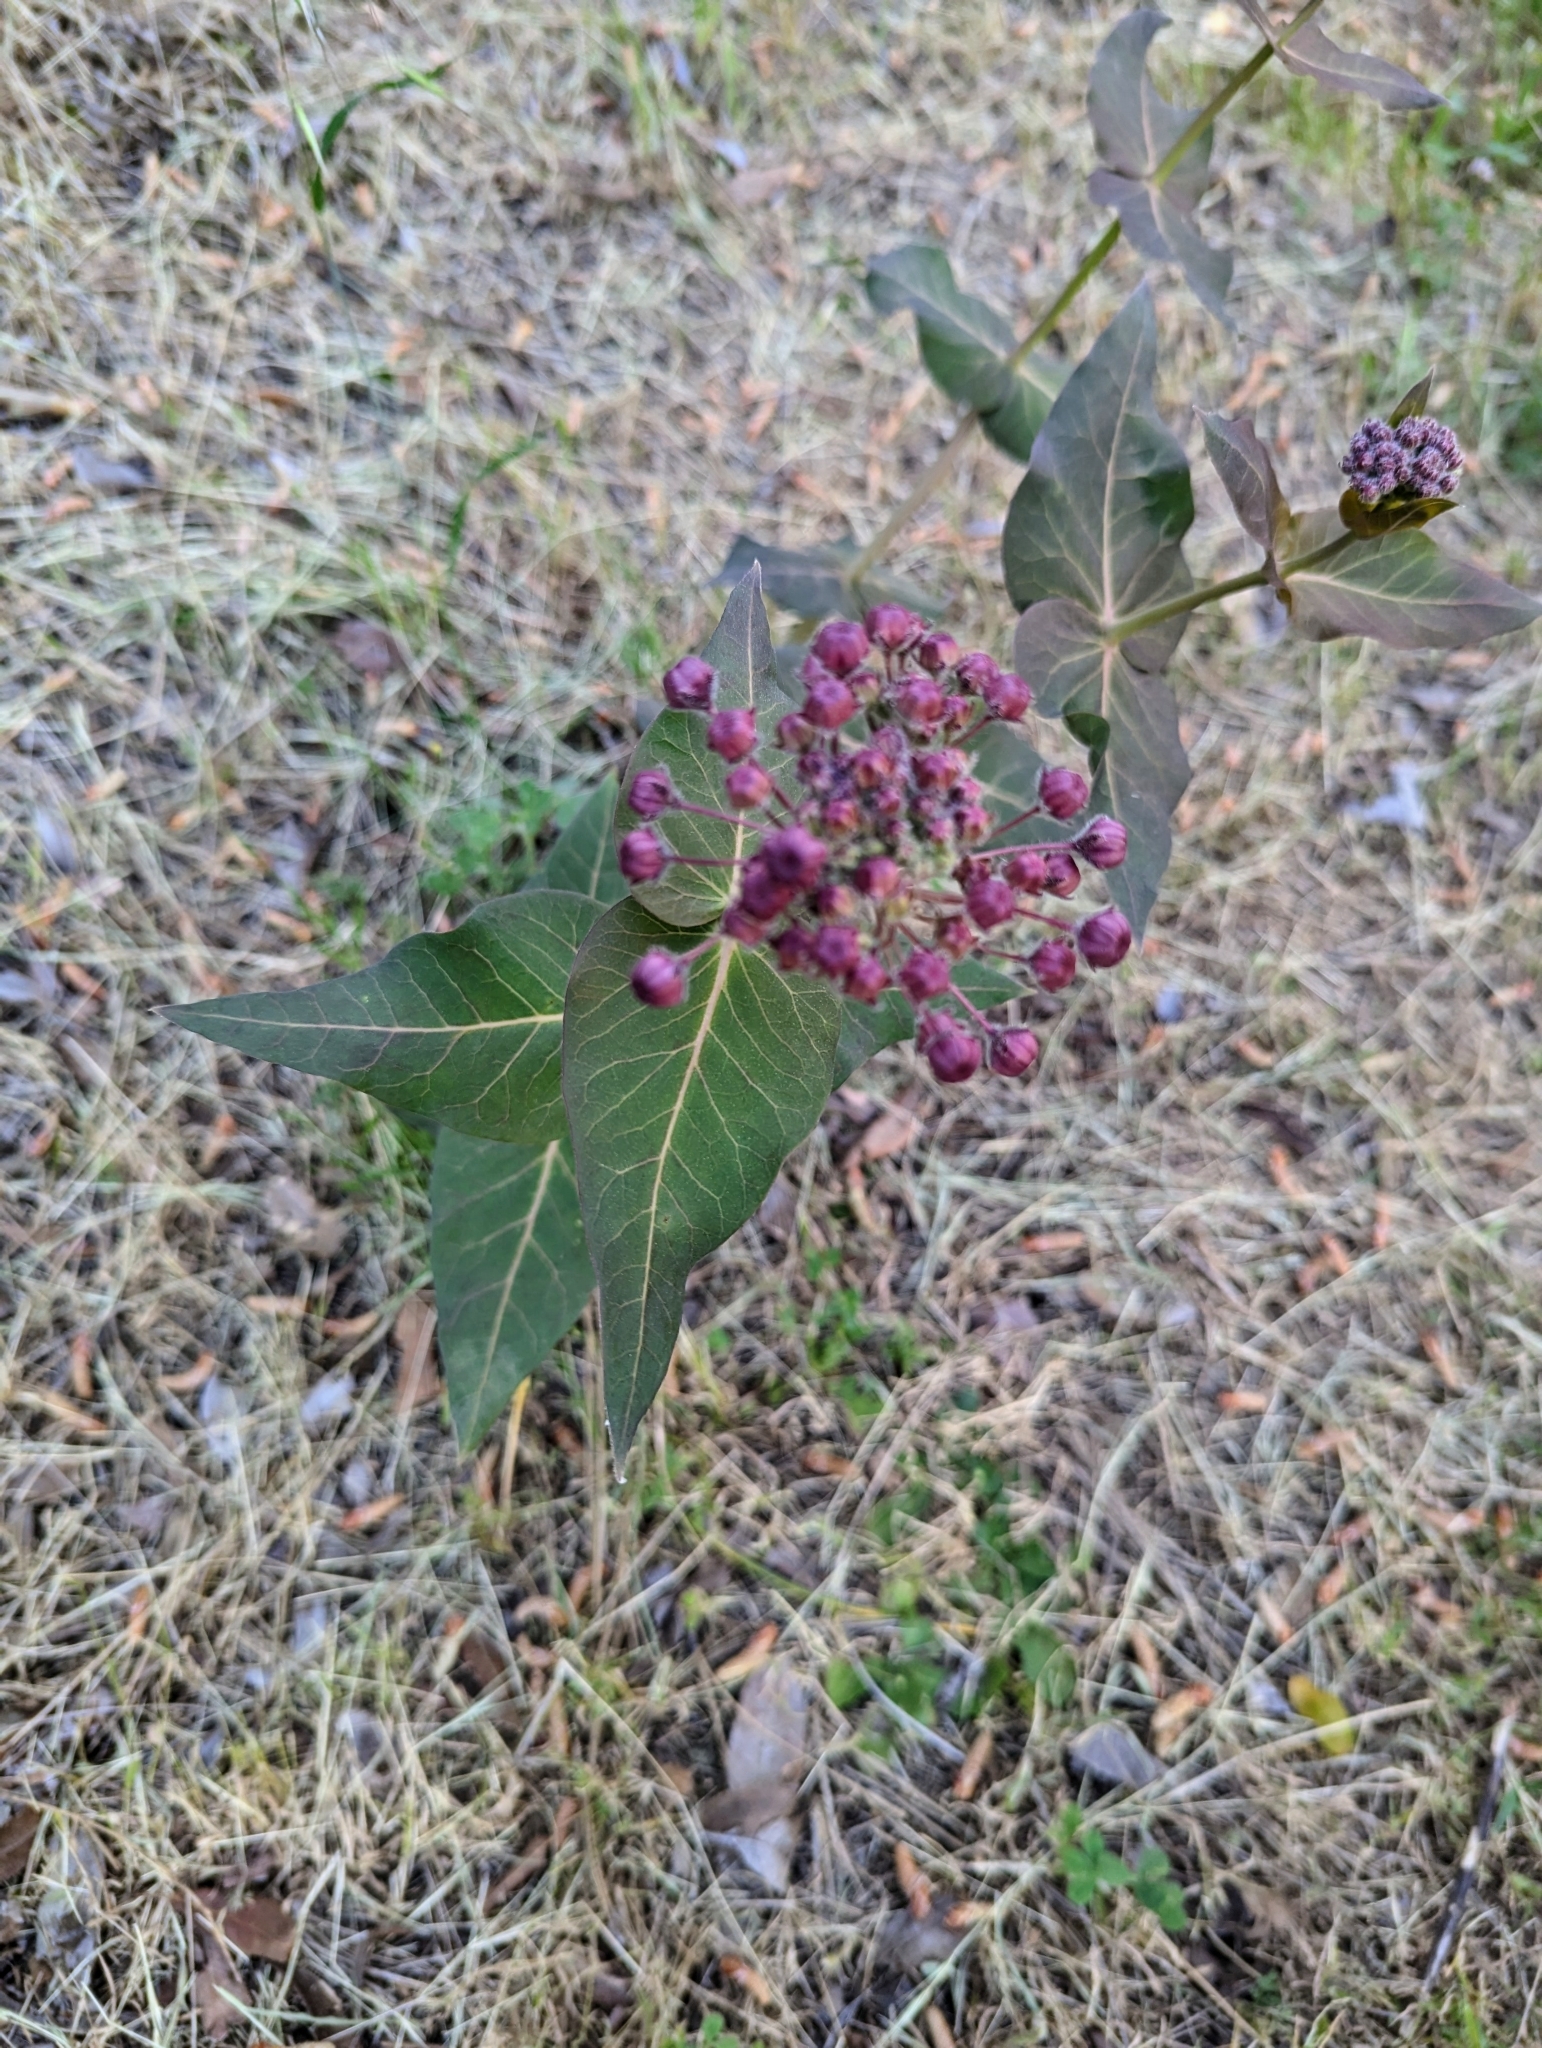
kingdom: Plantae
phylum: Tracheophyta
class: Magnoliopsida
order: Gentianales
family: Apocynaceae
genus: Asclepias
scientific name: Asclepias cordifolia
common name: Purple milkweed
